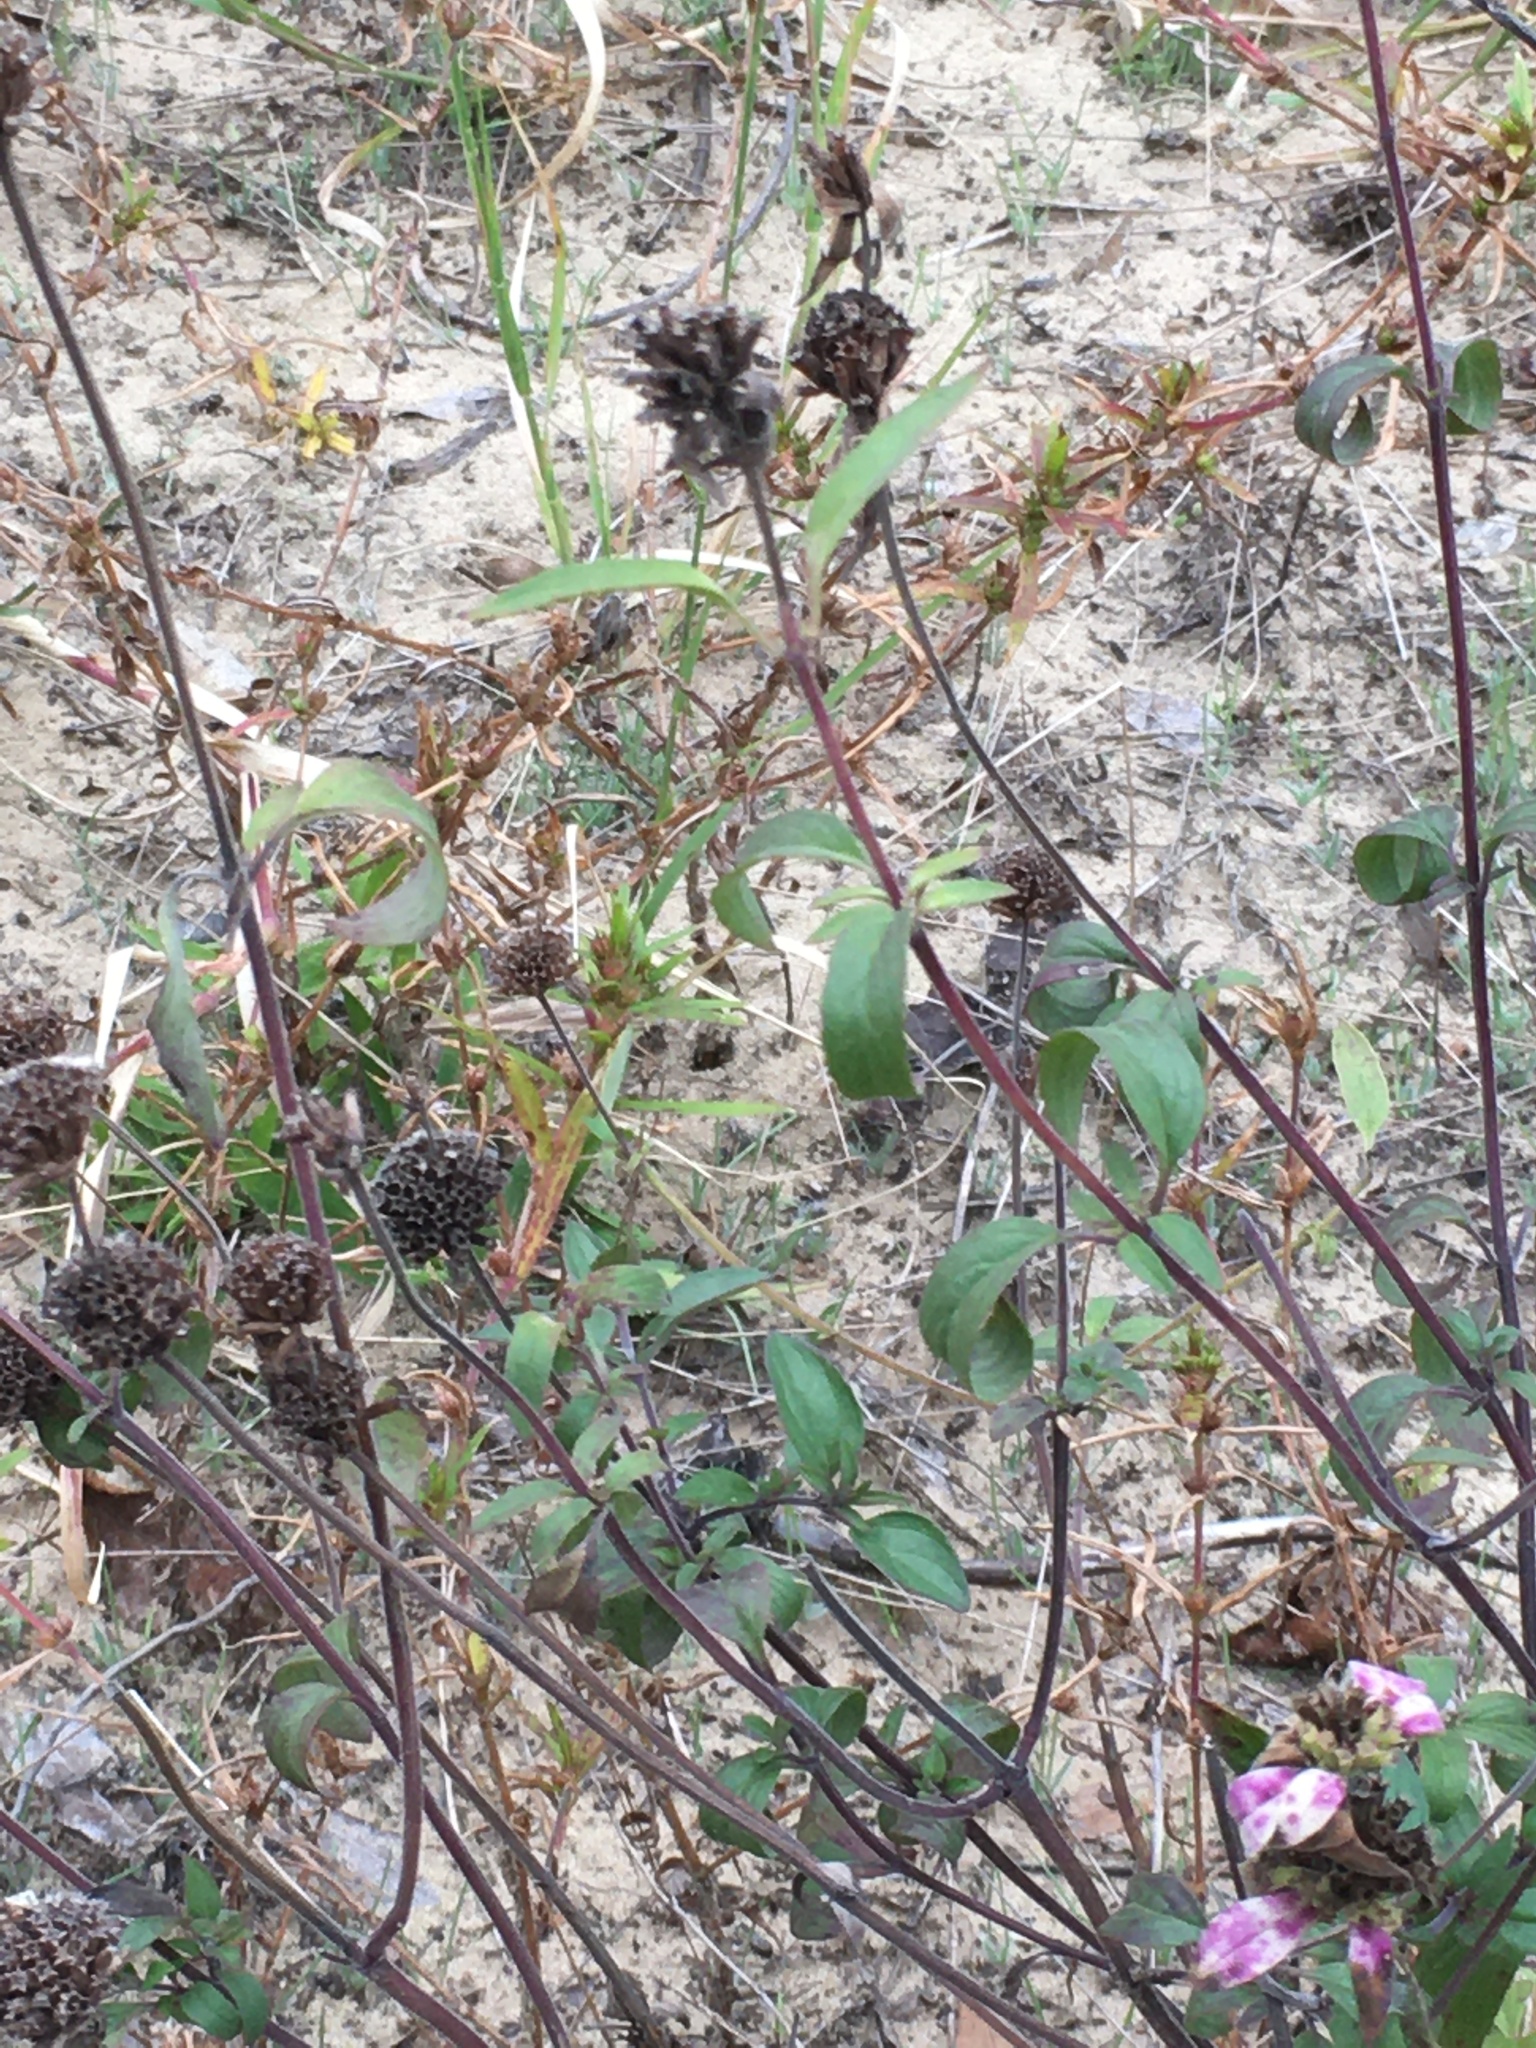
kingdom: Plantae
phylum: Tracheophyta
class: Magnoliopsida
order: Lamiales
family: Lamiaceae
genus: Monarda
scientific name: Monarda punctata
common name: Dotted monarda
